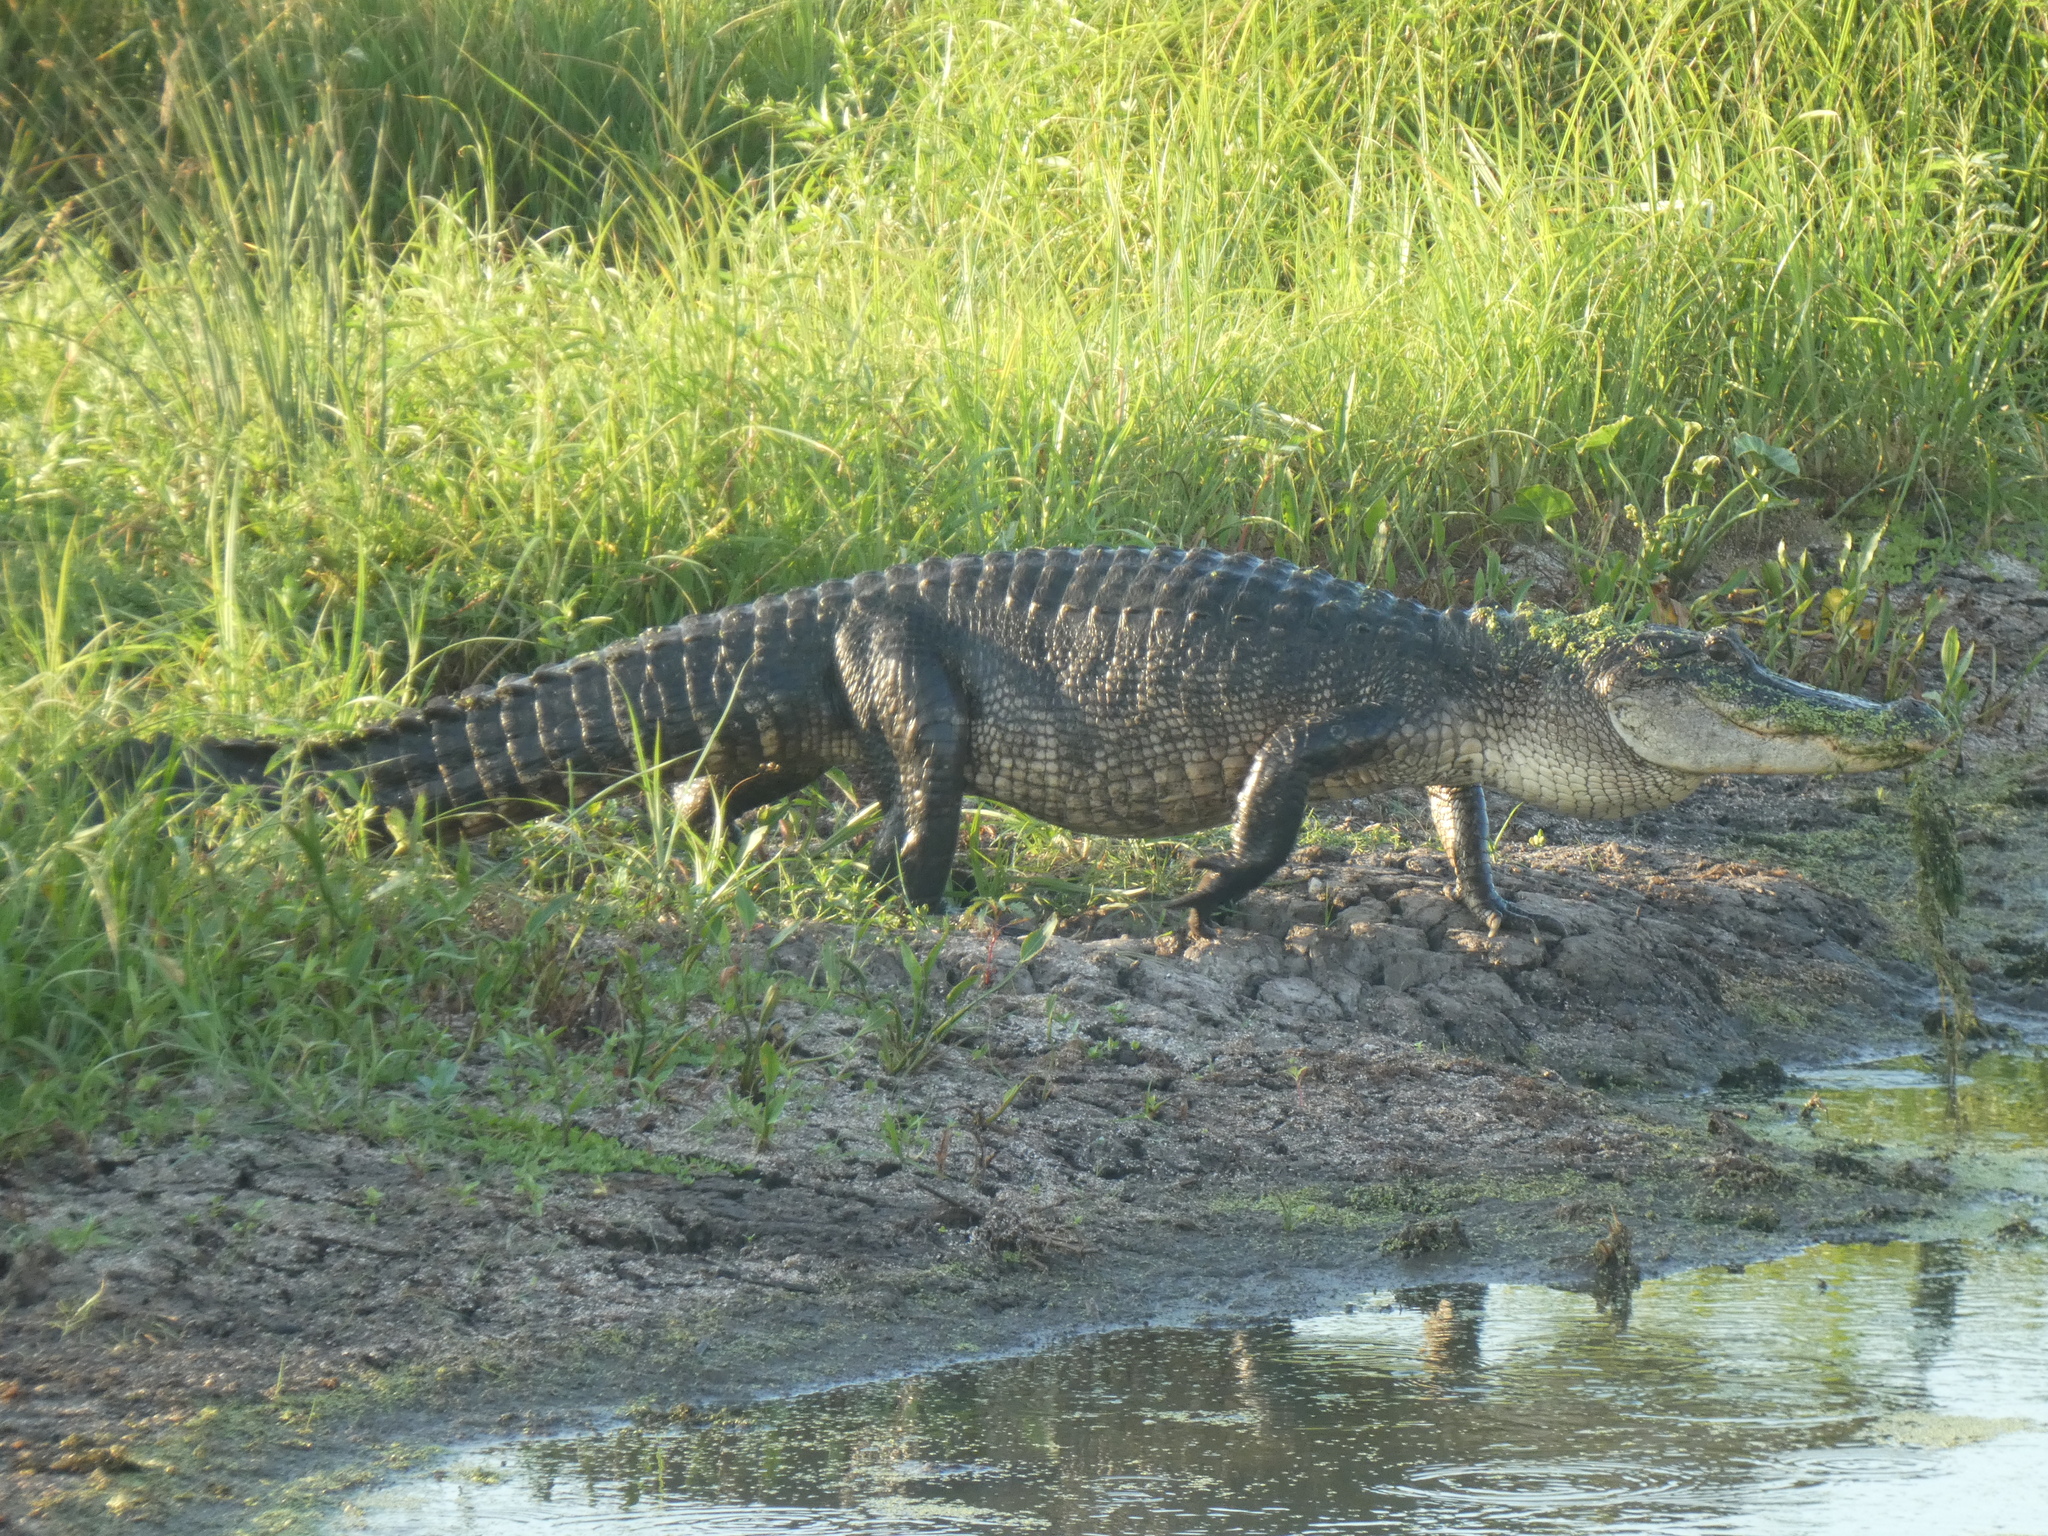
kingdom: Animalia
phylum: Chordata
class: Crocodylia
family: Alligatoridae
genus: Alligator
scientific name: Alligator mississippiensis
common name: American alligator
